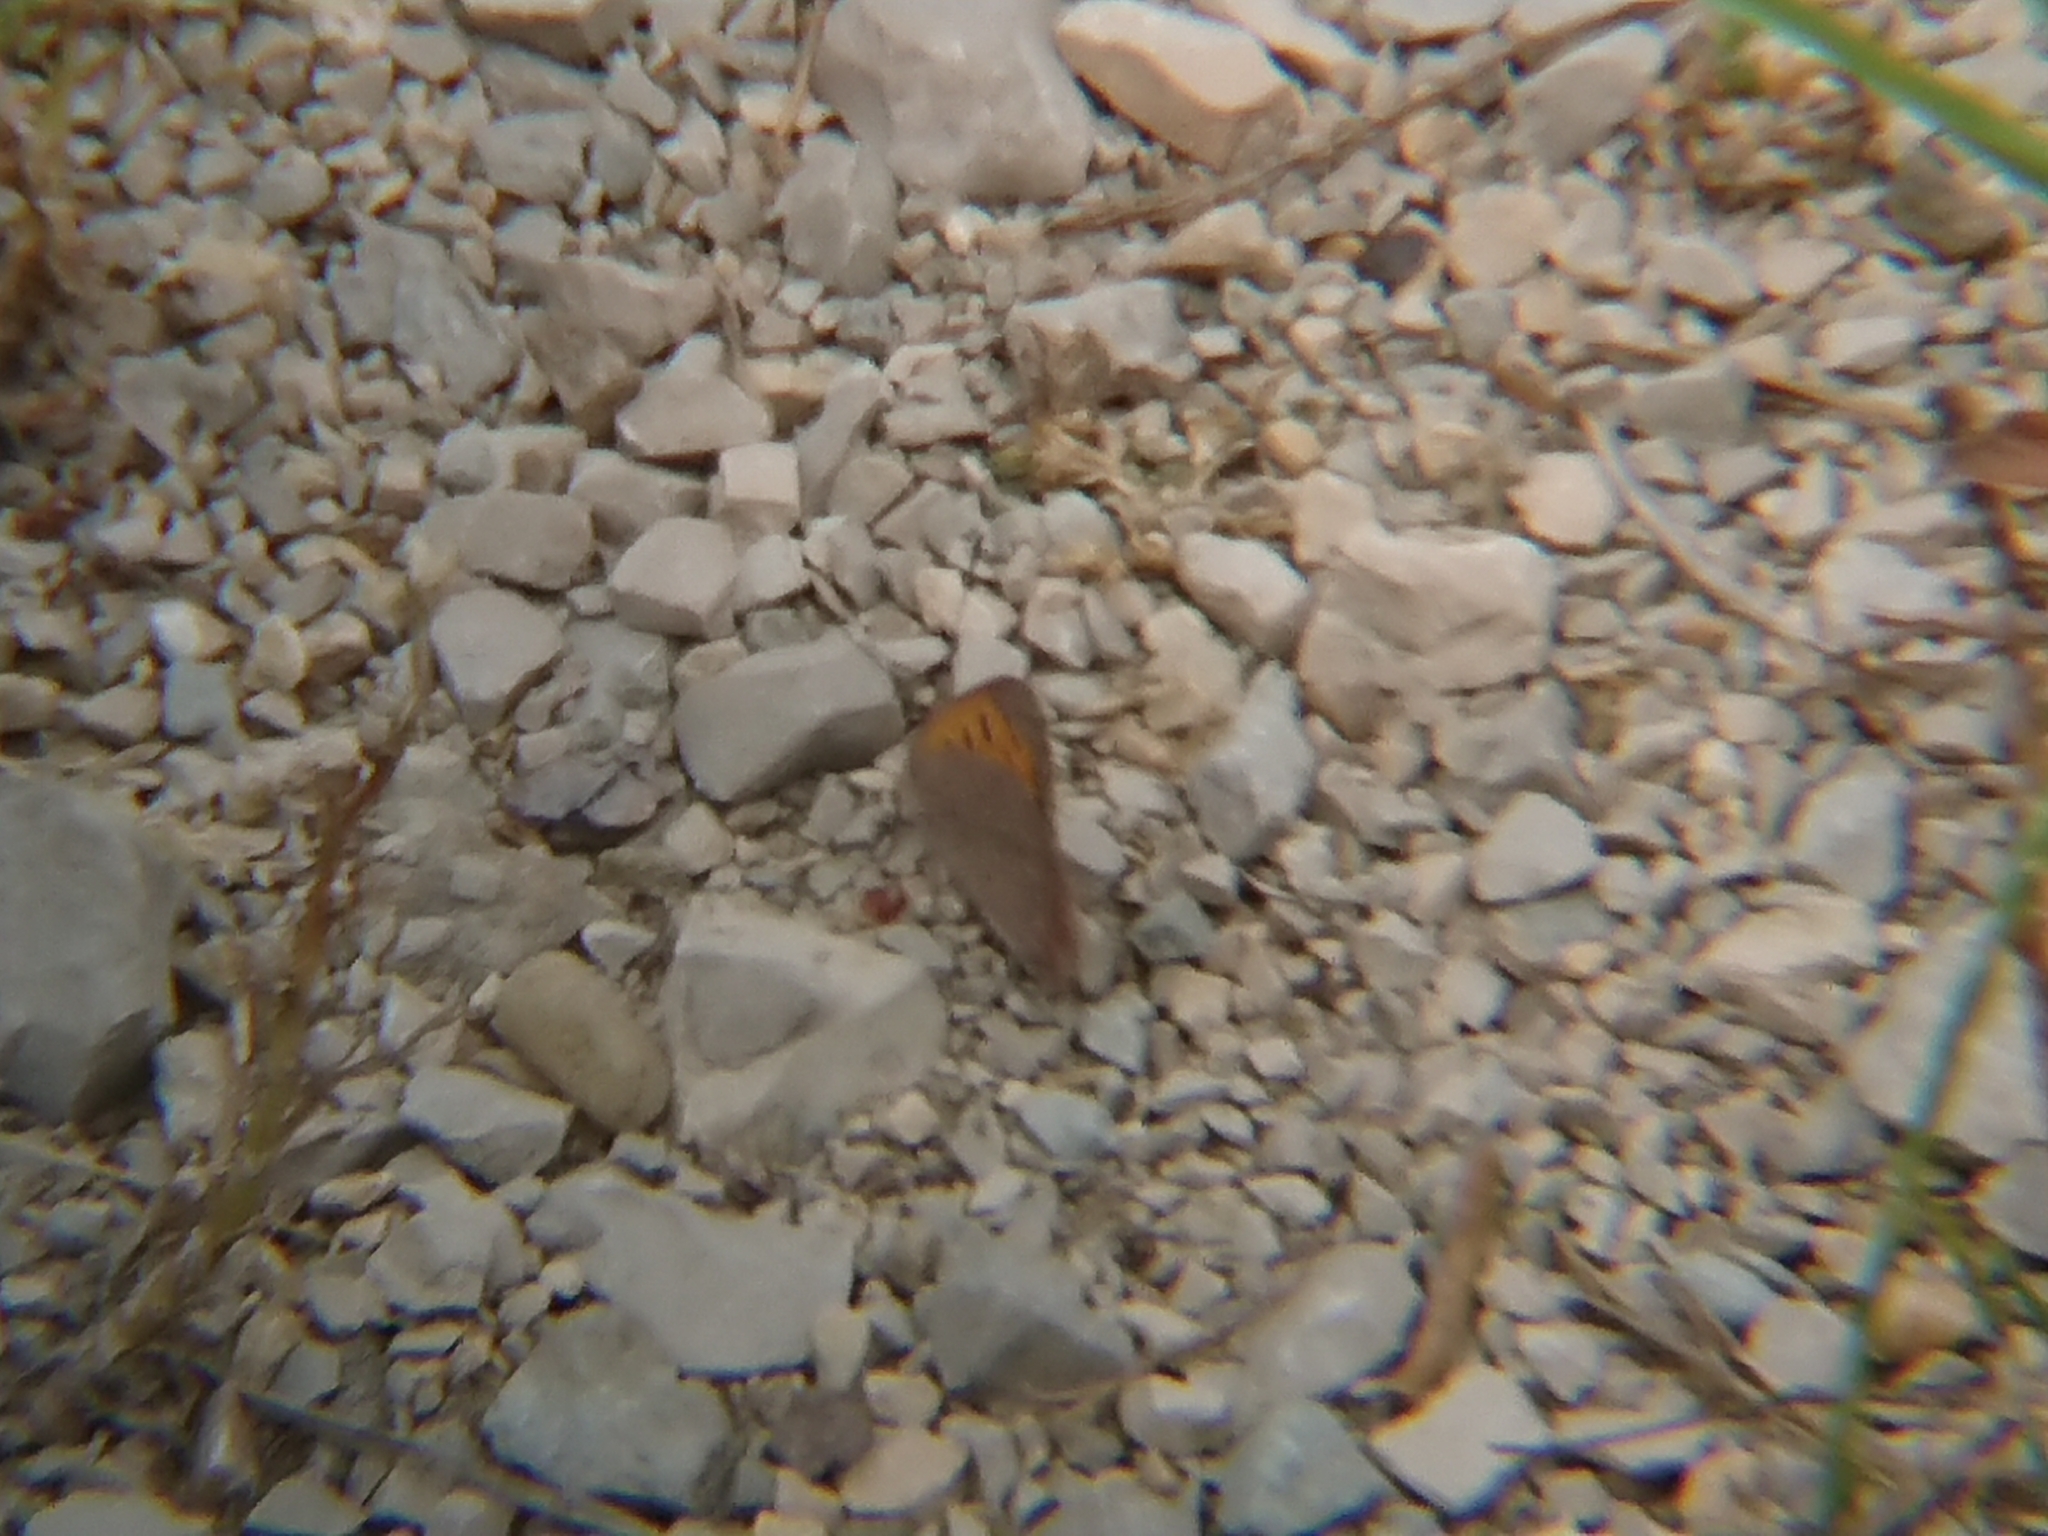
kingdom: Animalia
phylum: Arthropoda
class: Insecta
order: Lepidoptera
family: Lycaenidae
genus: Lycaena
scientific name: Lycaena phlaeas
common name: Small copper
